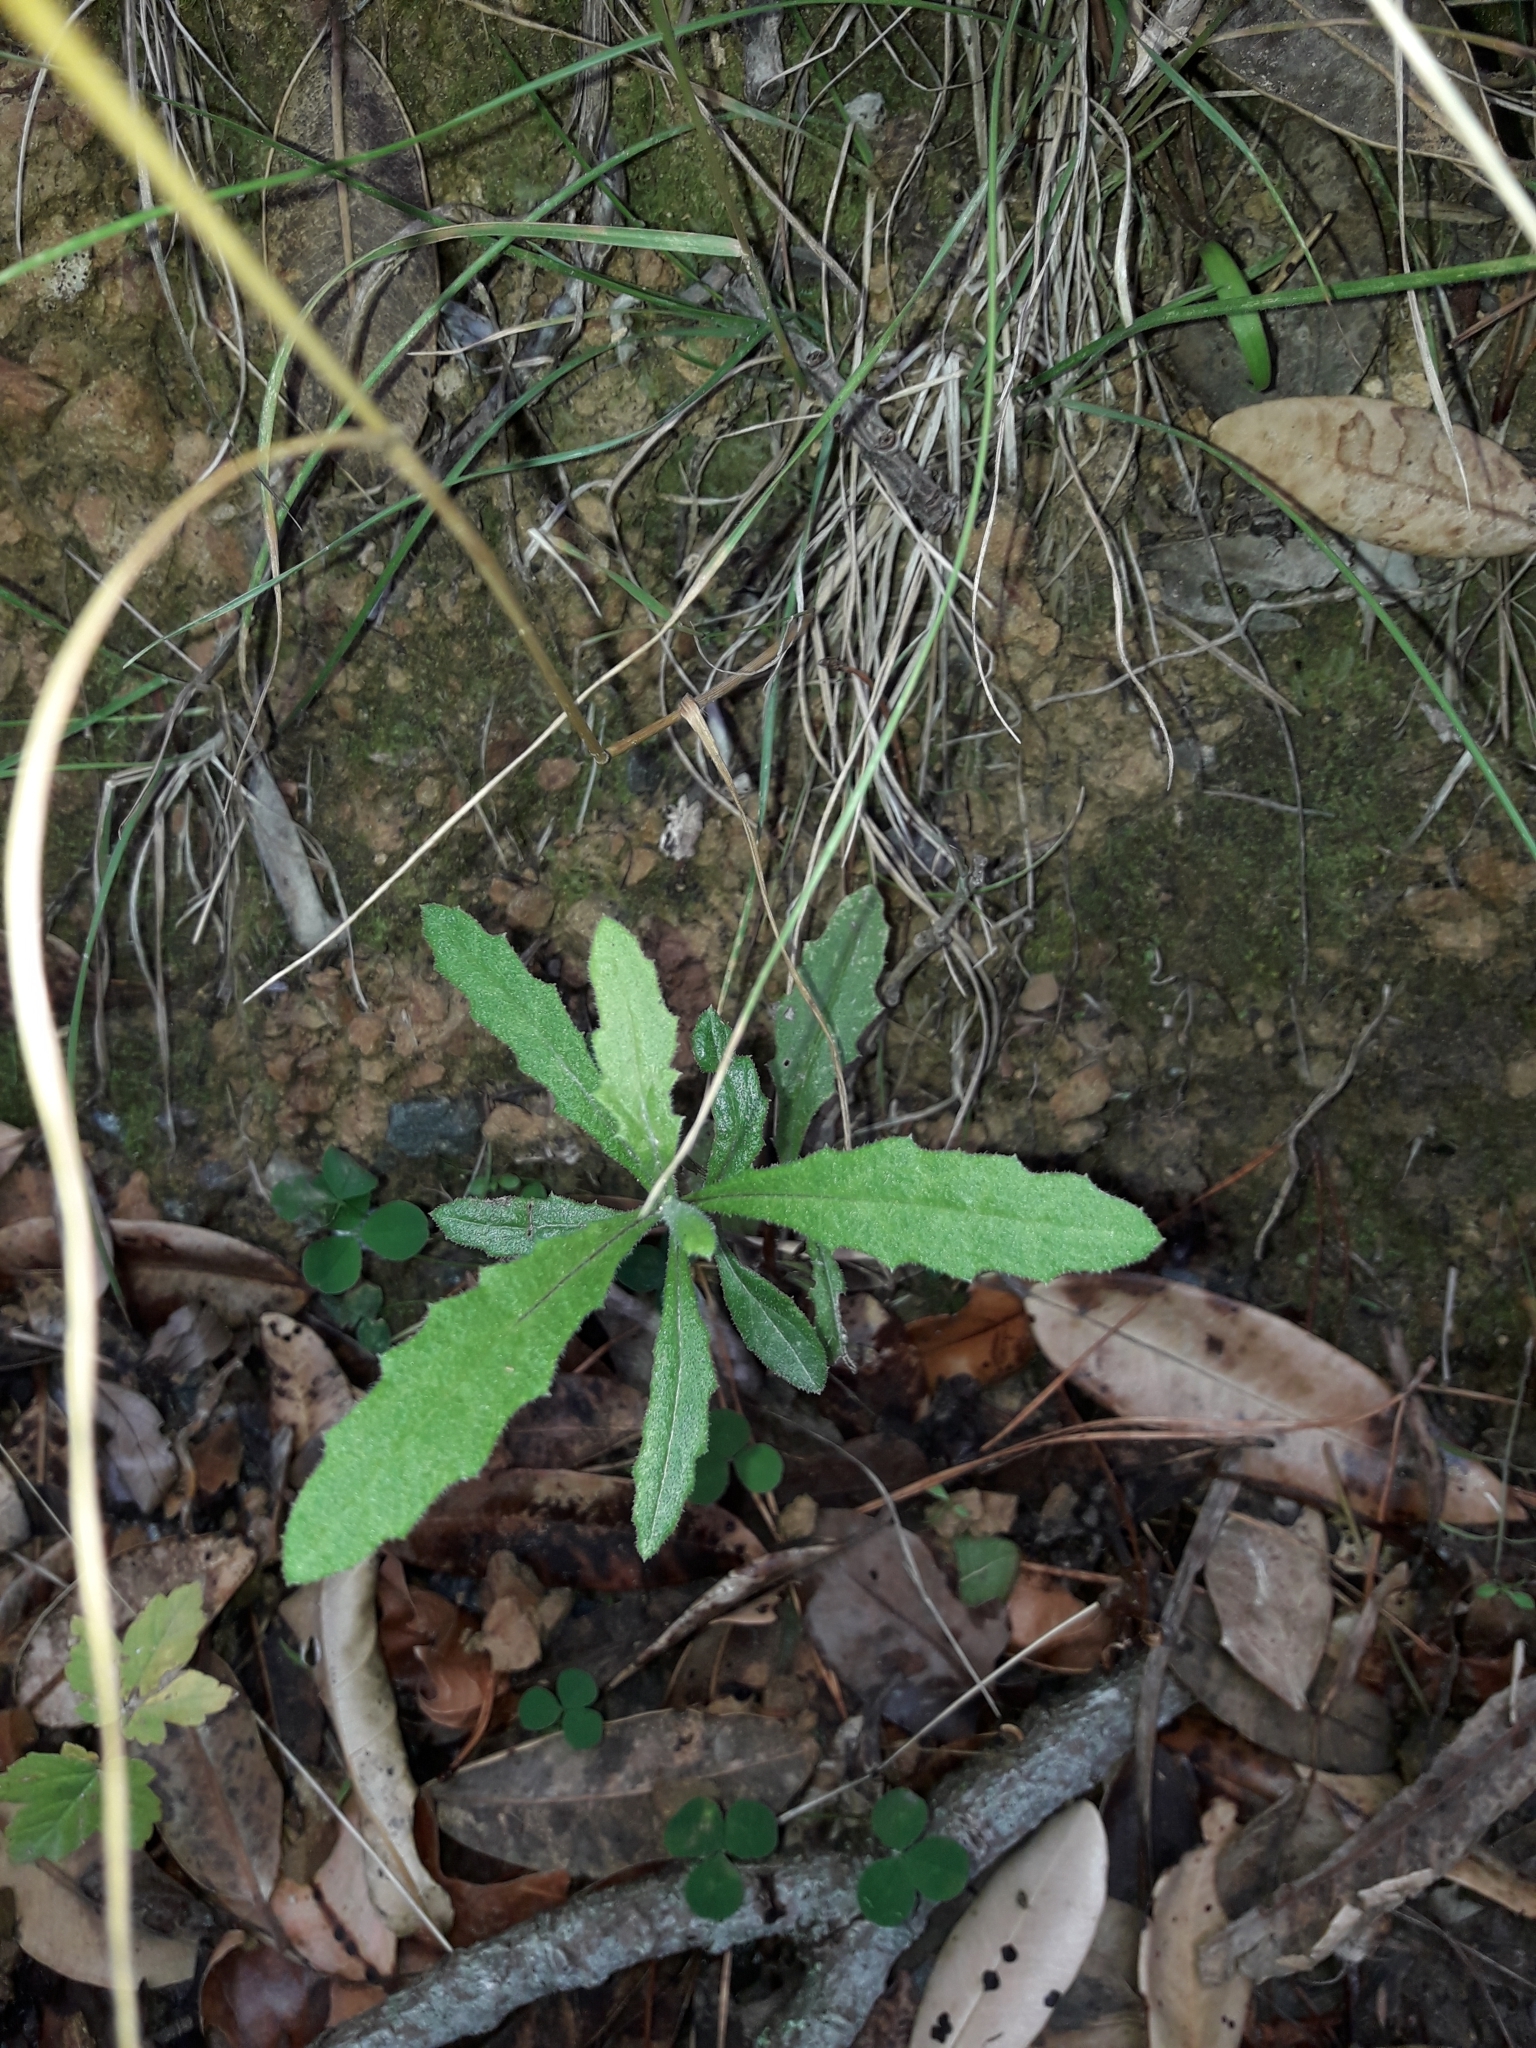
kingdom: Plantae
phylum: Tracheophyta
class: Magnoliopsida
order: Asterales
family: Asteraceae
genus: Senecio
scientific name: Senecio minimus
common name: Toothed fireweed
